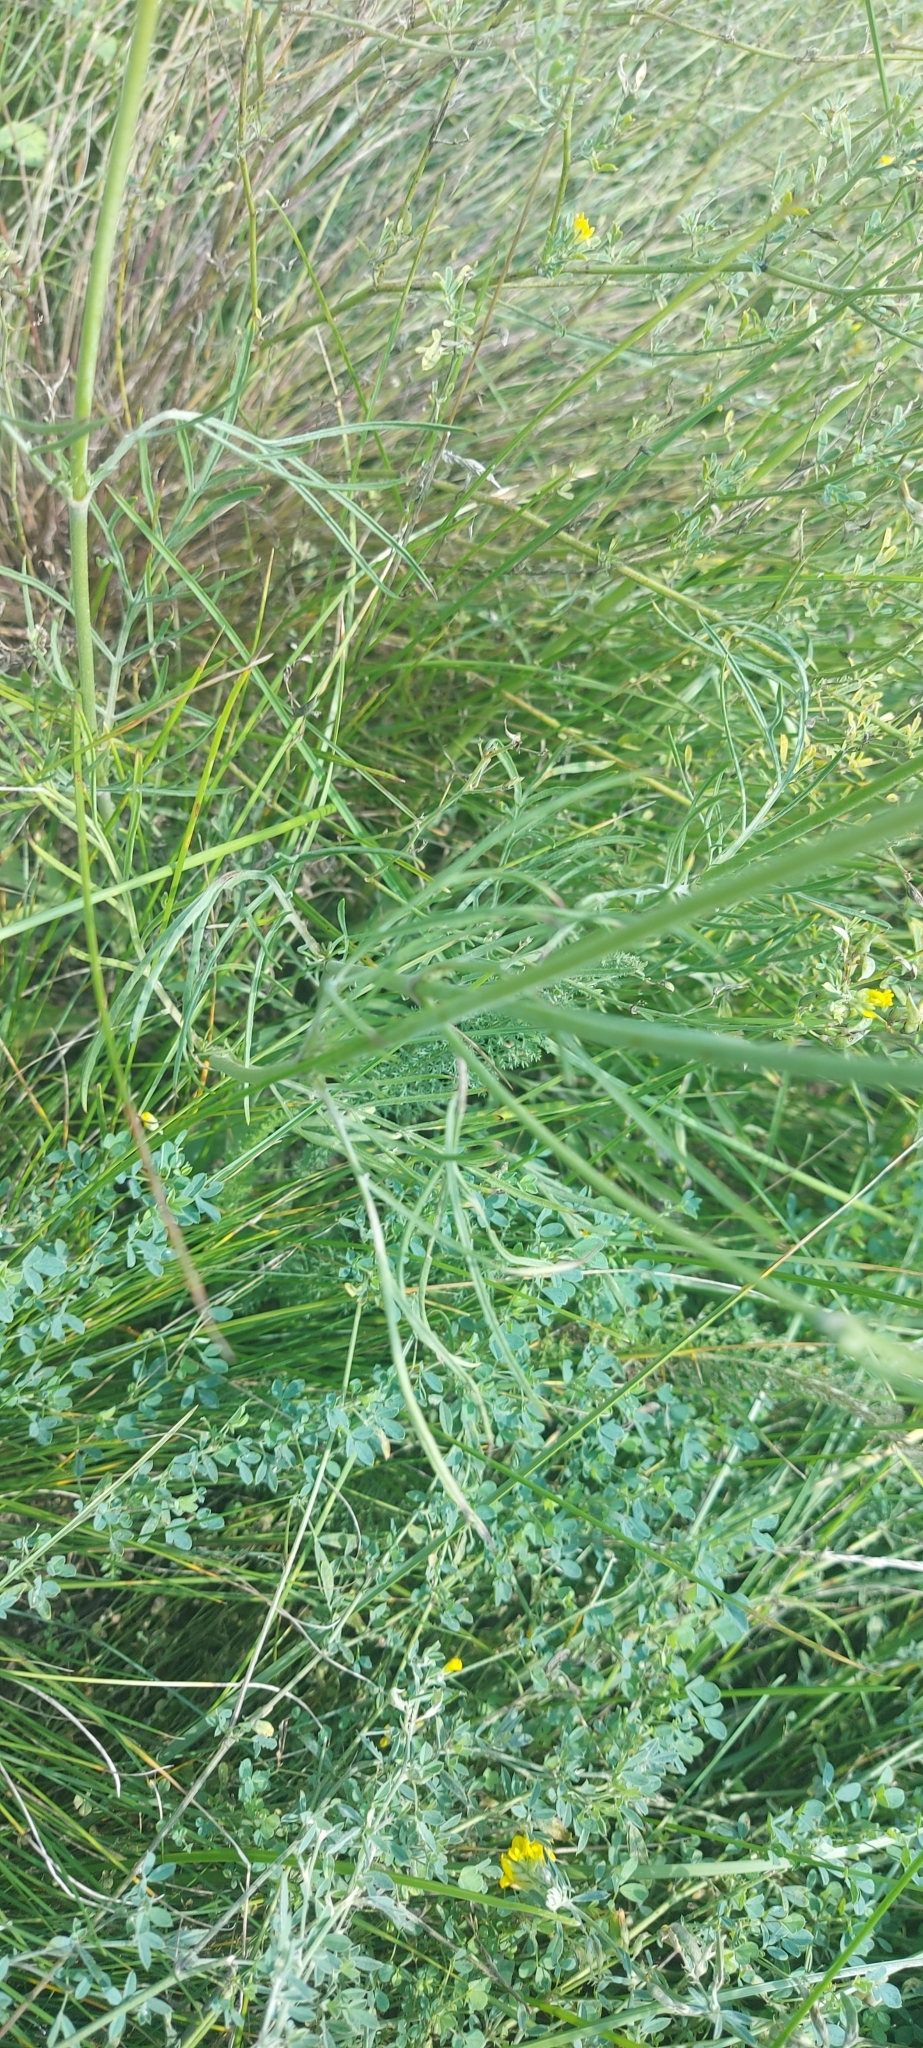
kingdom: Plantae
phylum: Tracheophyta
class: Magnoliopsida
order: Dipsacales
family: Caprifoliaceae
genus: Scabiosa
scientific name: Scabiosa ochroleuca
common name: Cream pincushions
